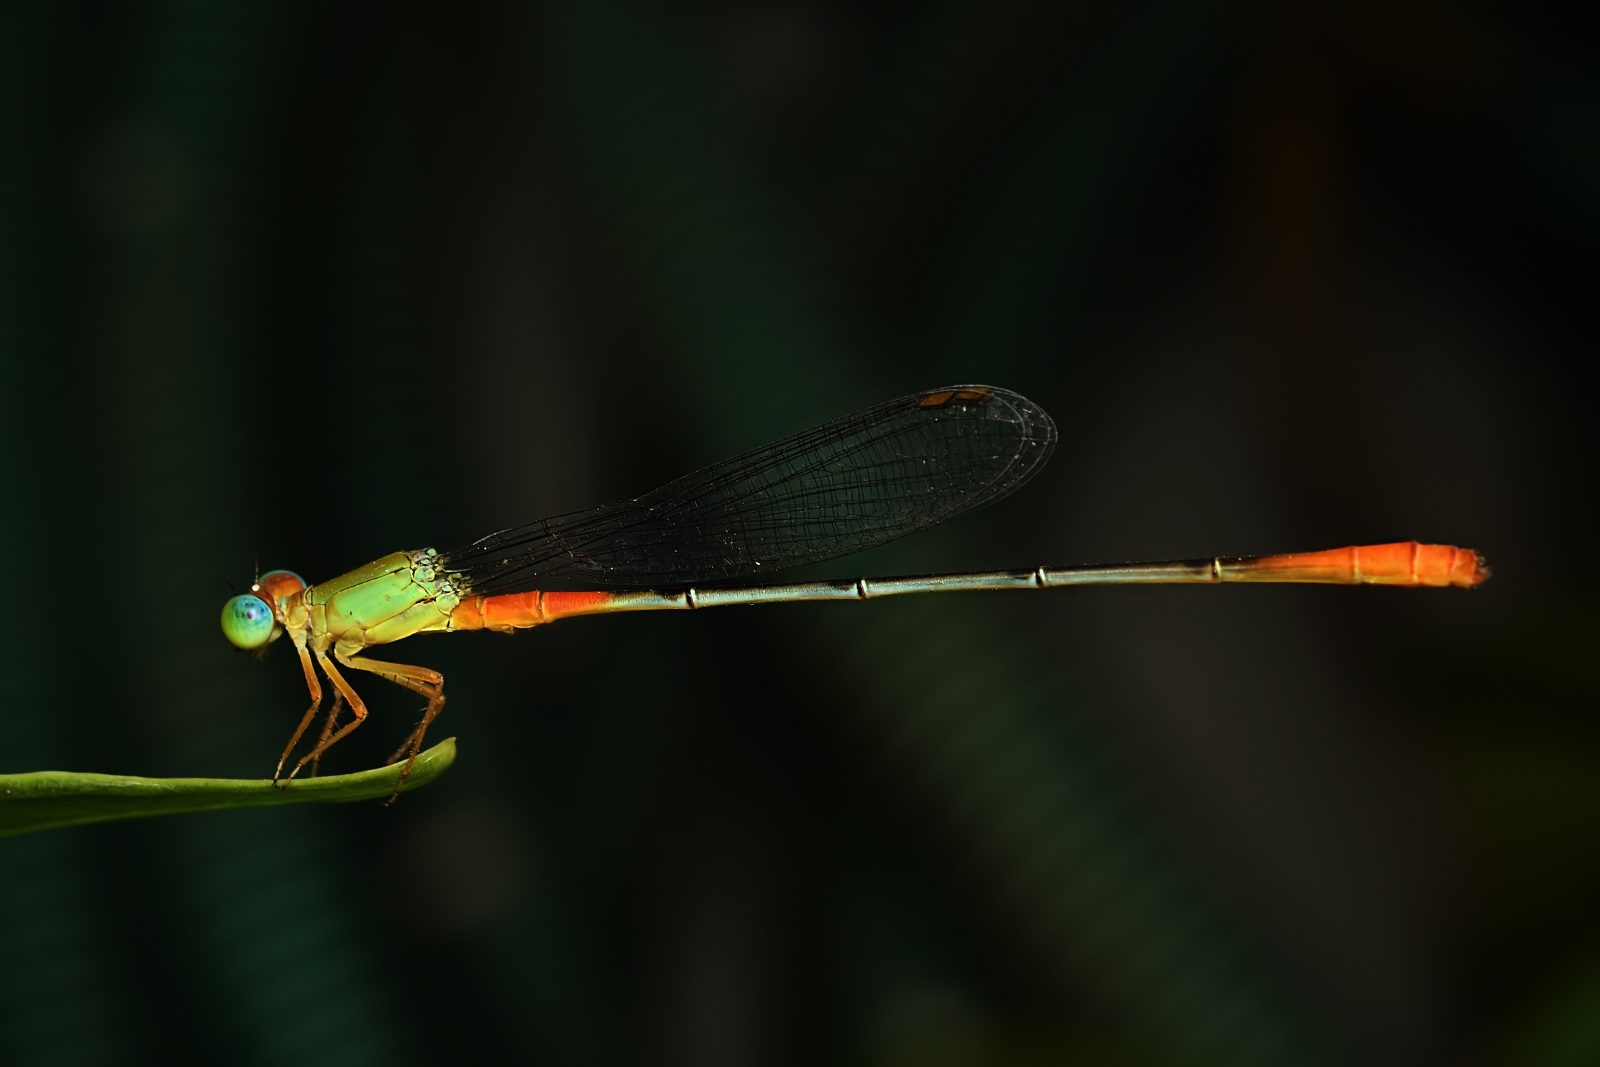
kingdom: Animalia
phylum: Arthropoda
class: Insecta
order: Odonata
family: Coenagrionidae
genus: Ceriagrion
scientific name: Ceriagrion cerinorubellum
